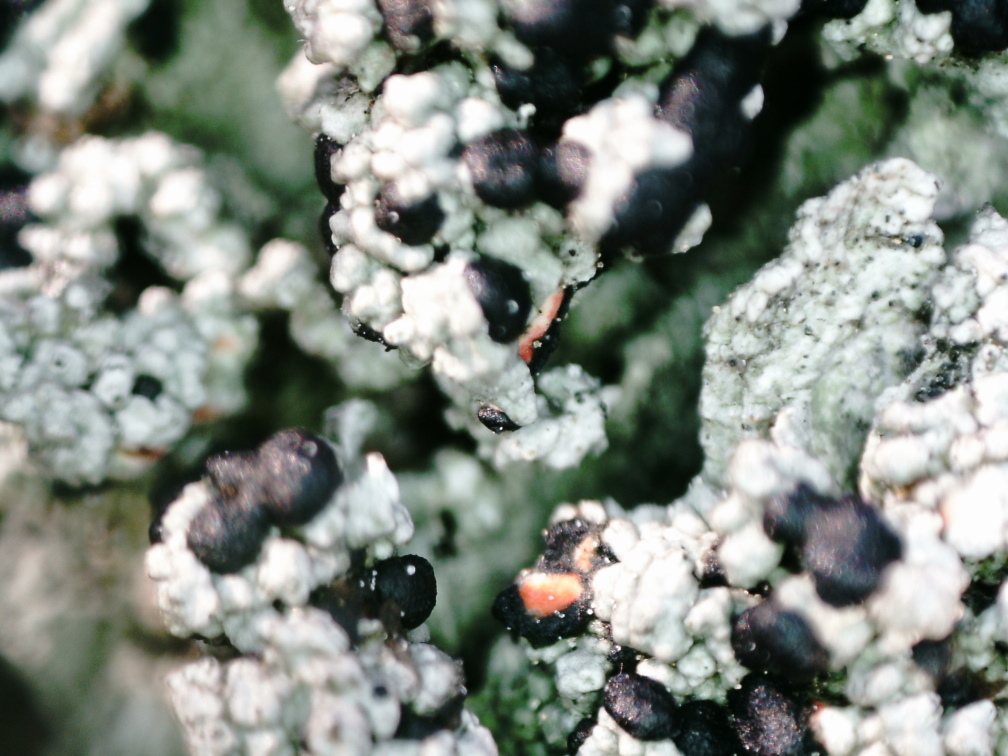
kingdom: Fungi
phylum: Ascomycota
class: Lecanoromycetes
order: Lecanorales
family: Tephromelataceae
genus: Mycoblastus
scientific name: Mycoblastus sanguinarius
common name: Bloody-heart lichen
